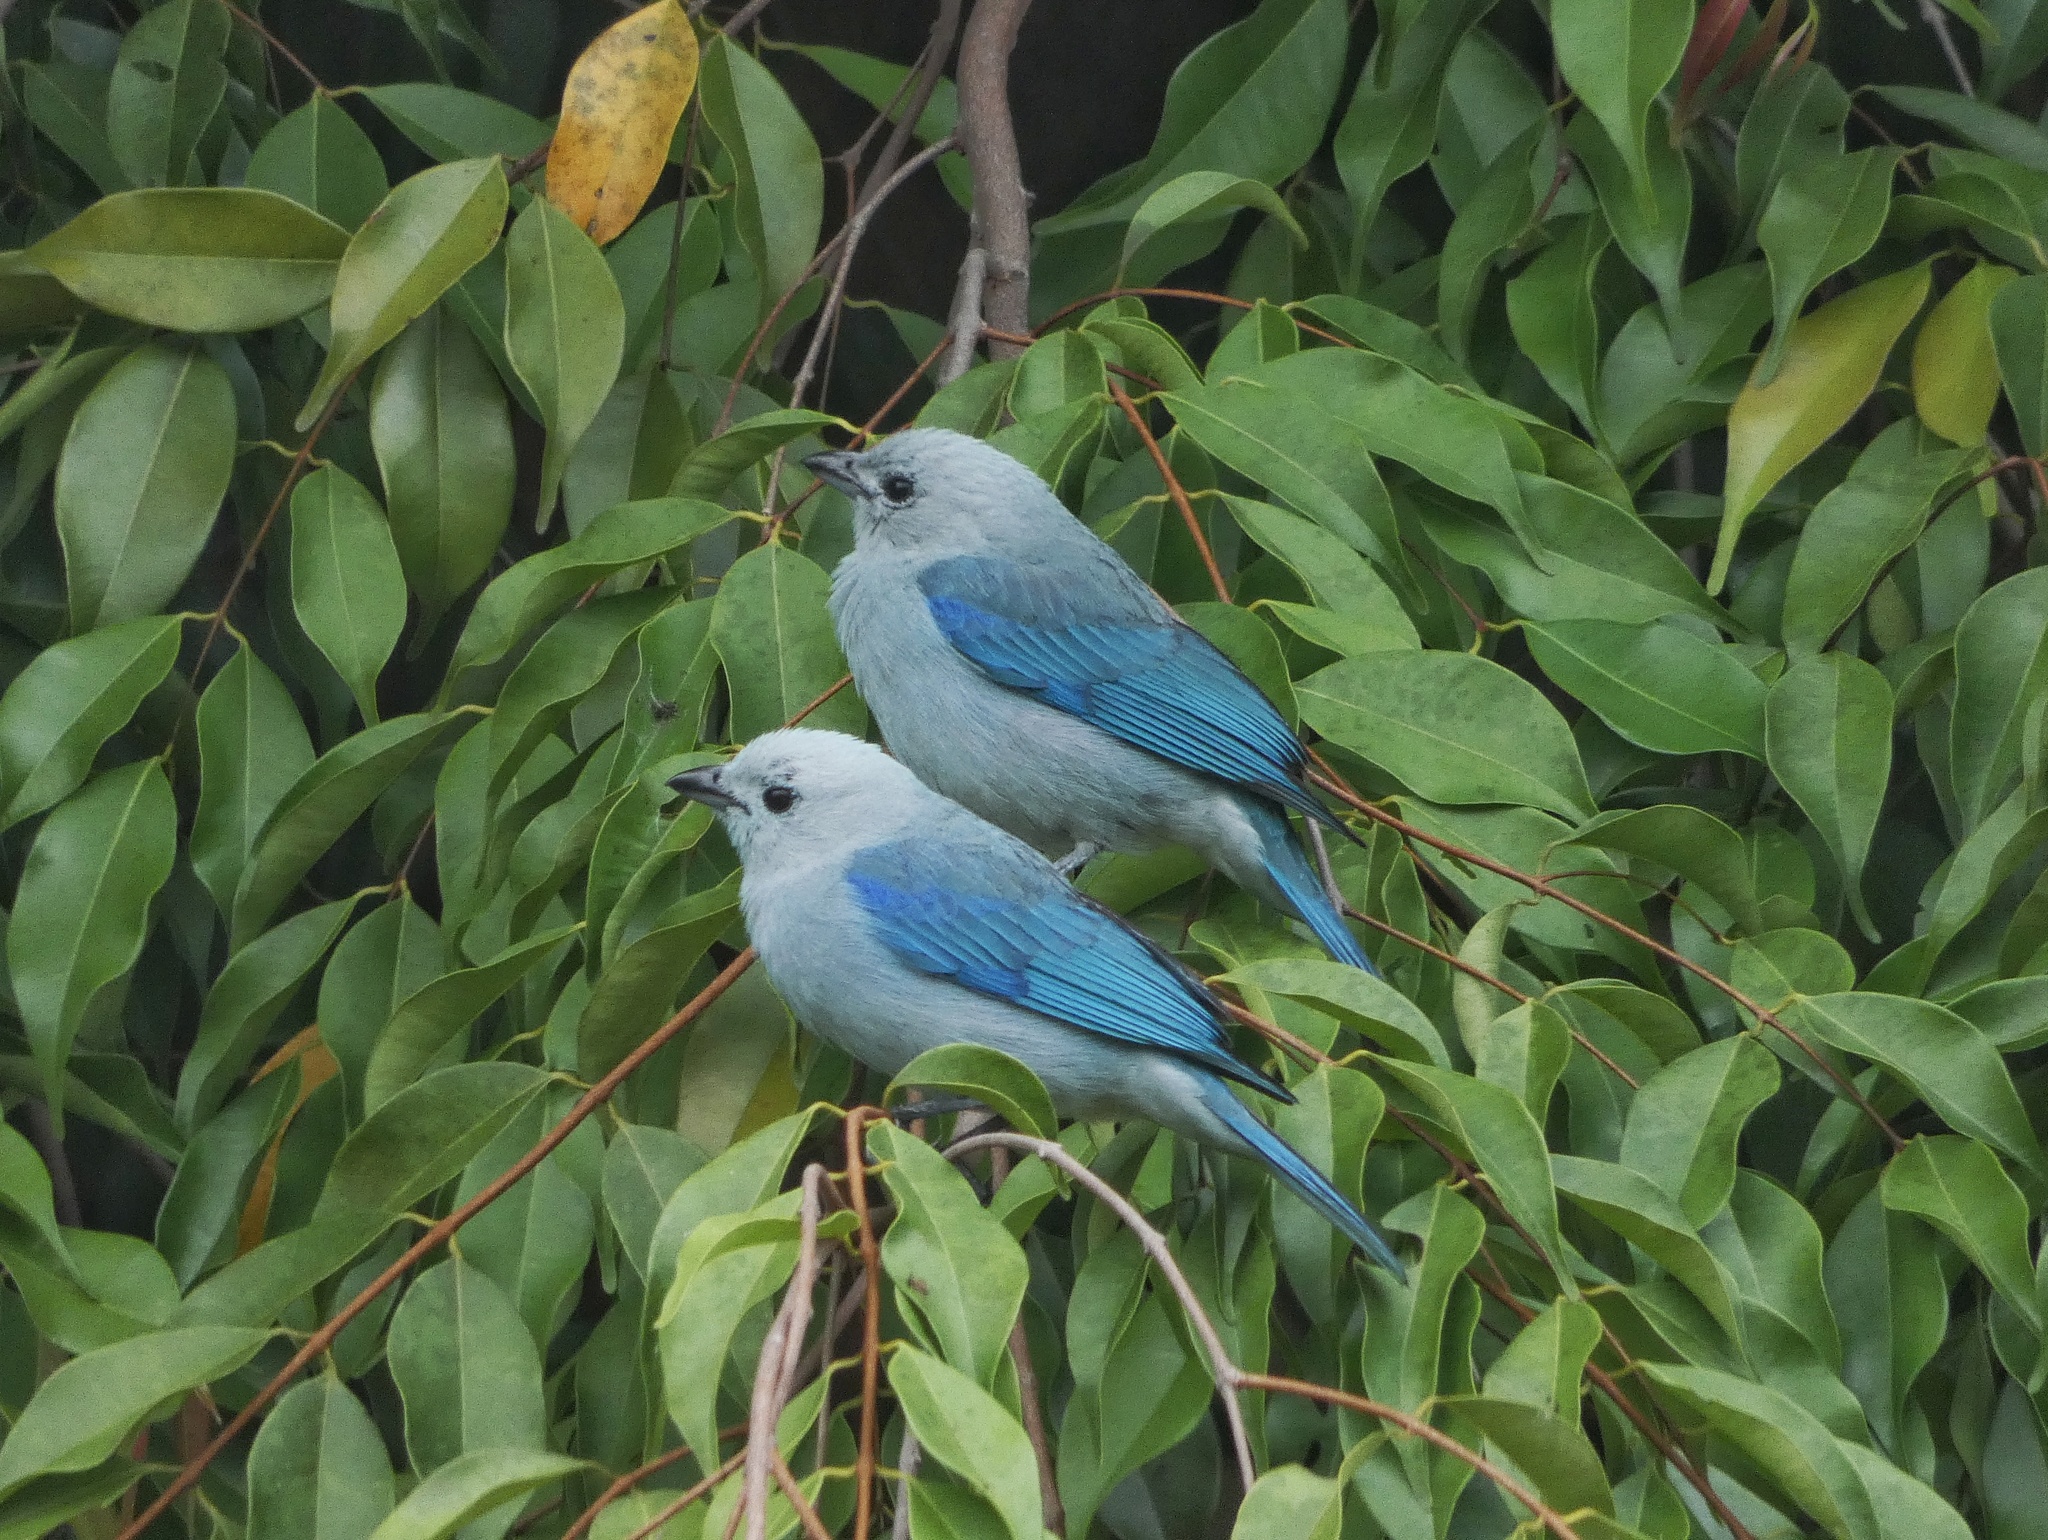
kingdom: Animalia
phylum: Chordata
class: Aves
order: Passeriformes
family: Thraupidae
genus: Thraupis
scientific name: Thraupis episcopus
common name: Blue-grey tanager
